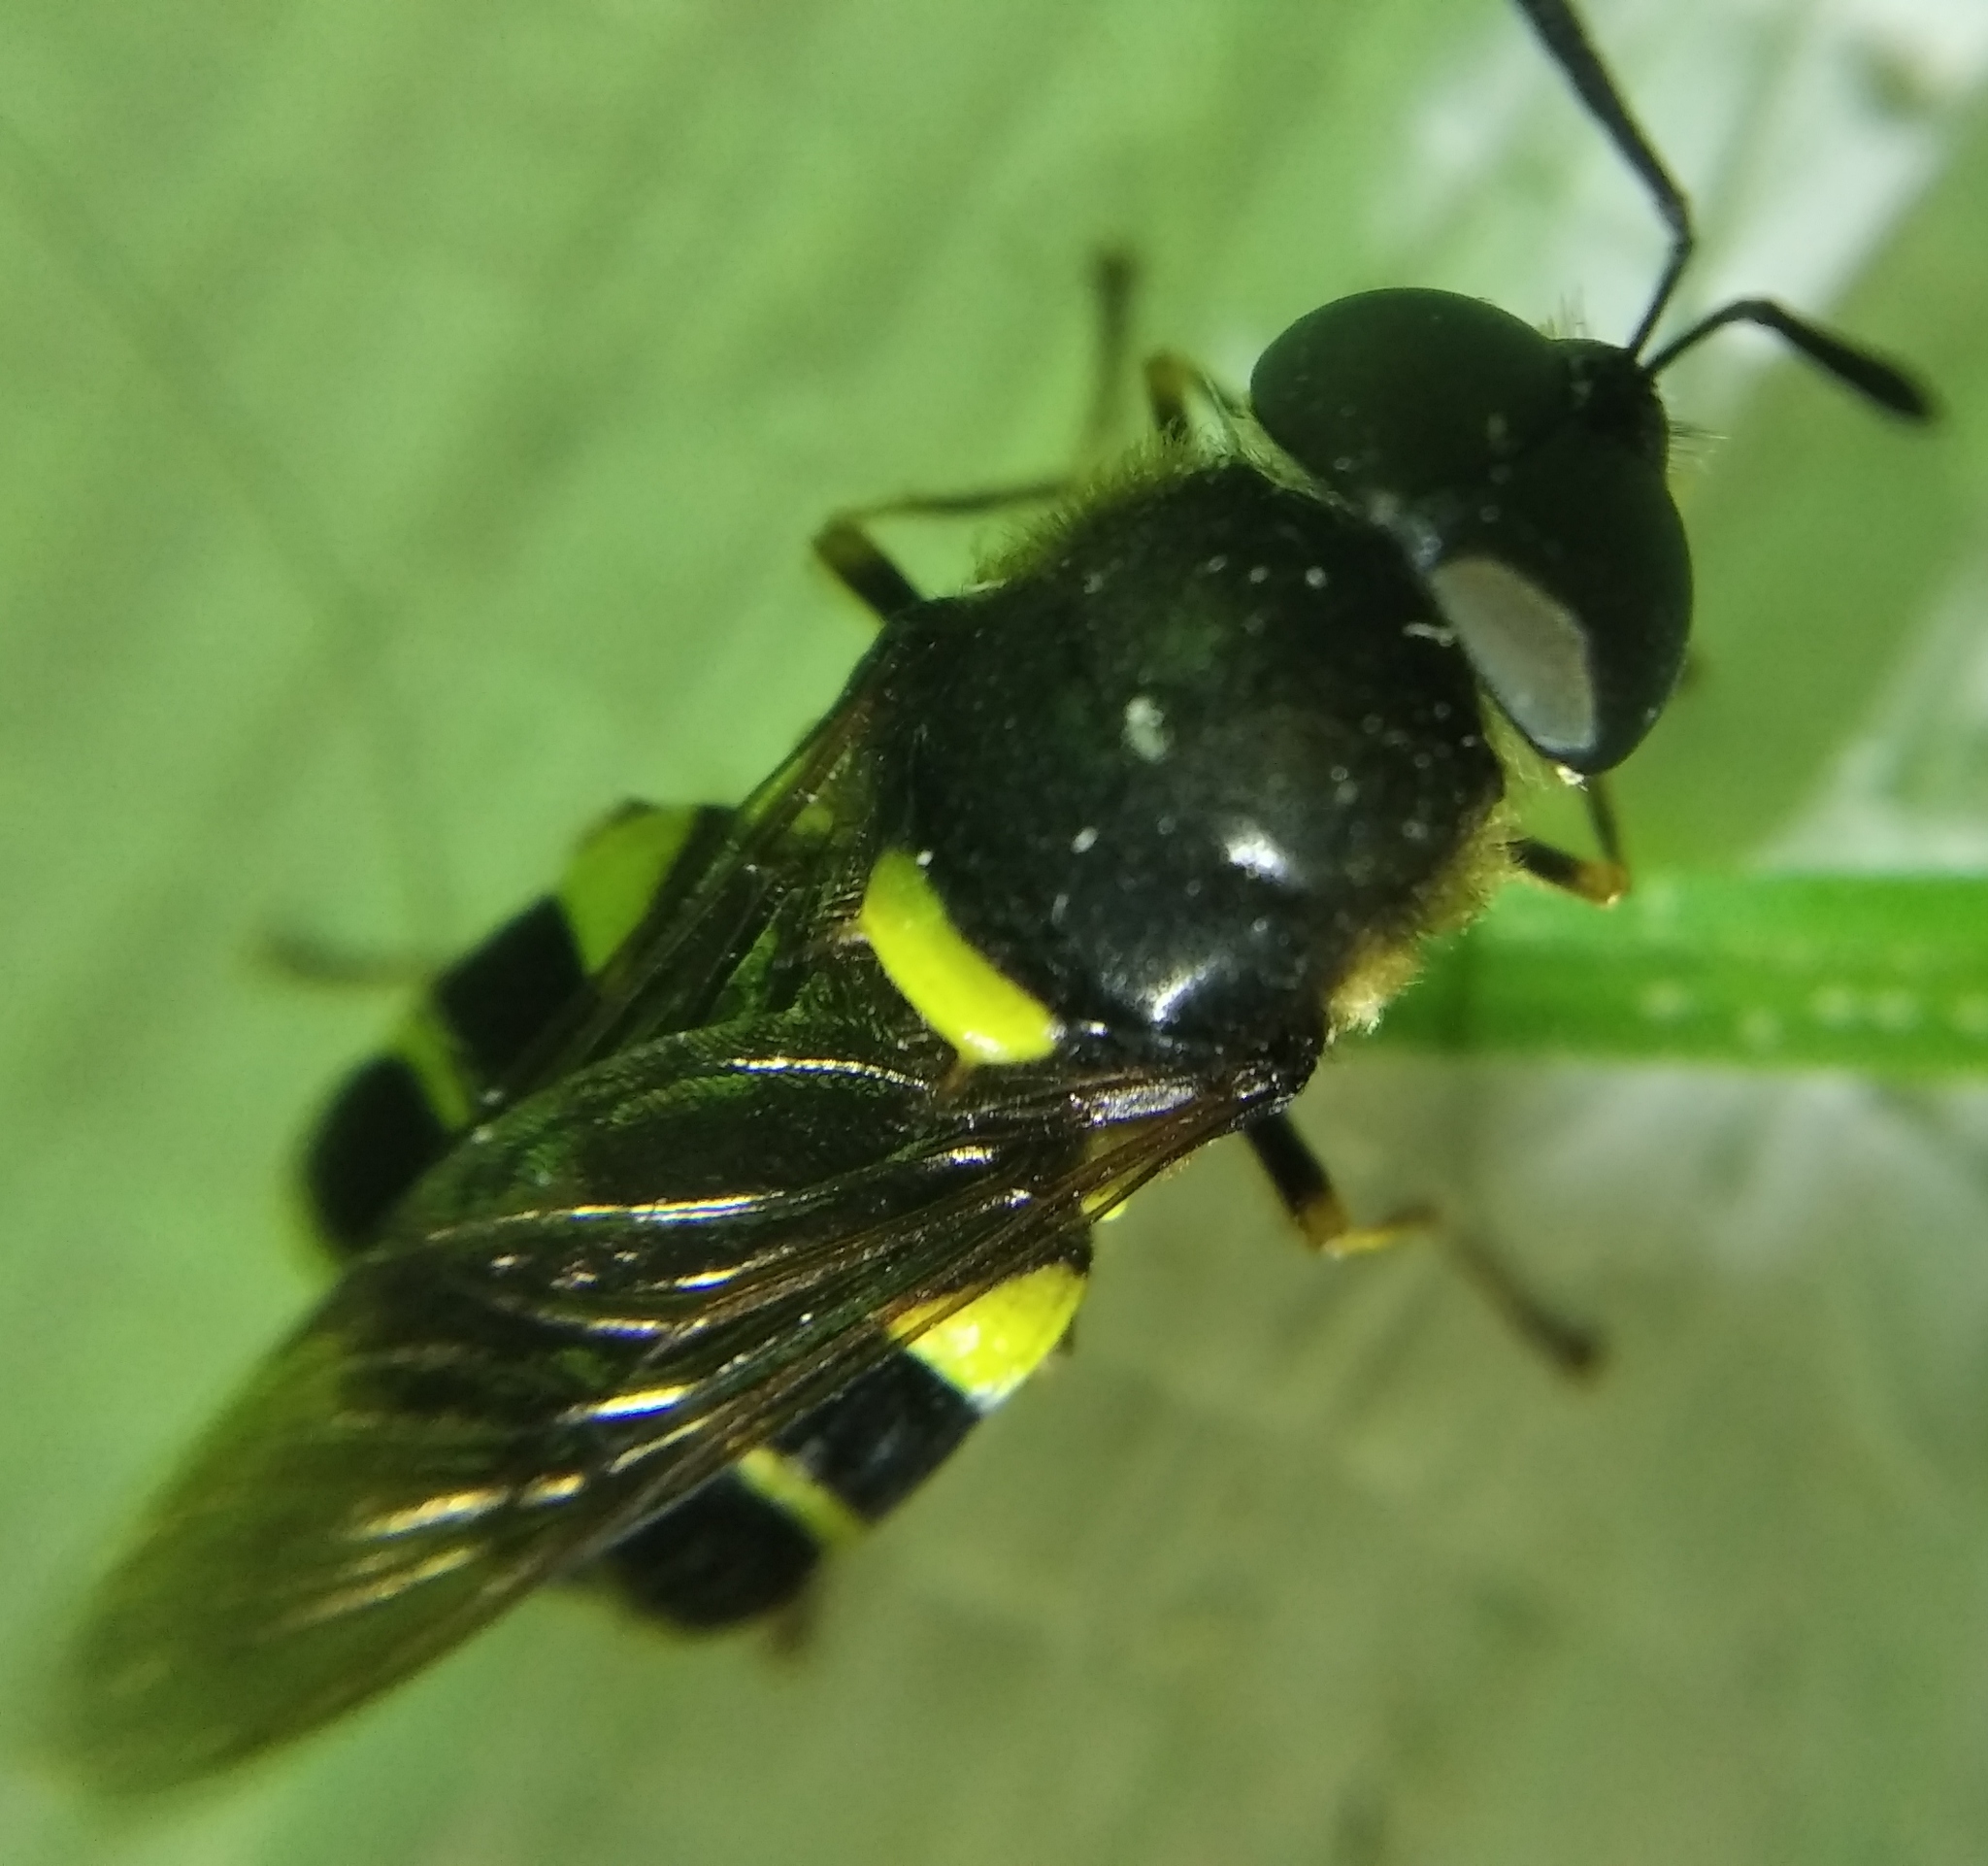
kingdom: Animalia
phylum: Arthropoda
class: Insecta
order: Diptera
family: Stratiomyidae
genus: Stratiomys
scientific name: Stratiomys potamida
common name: Banded general
